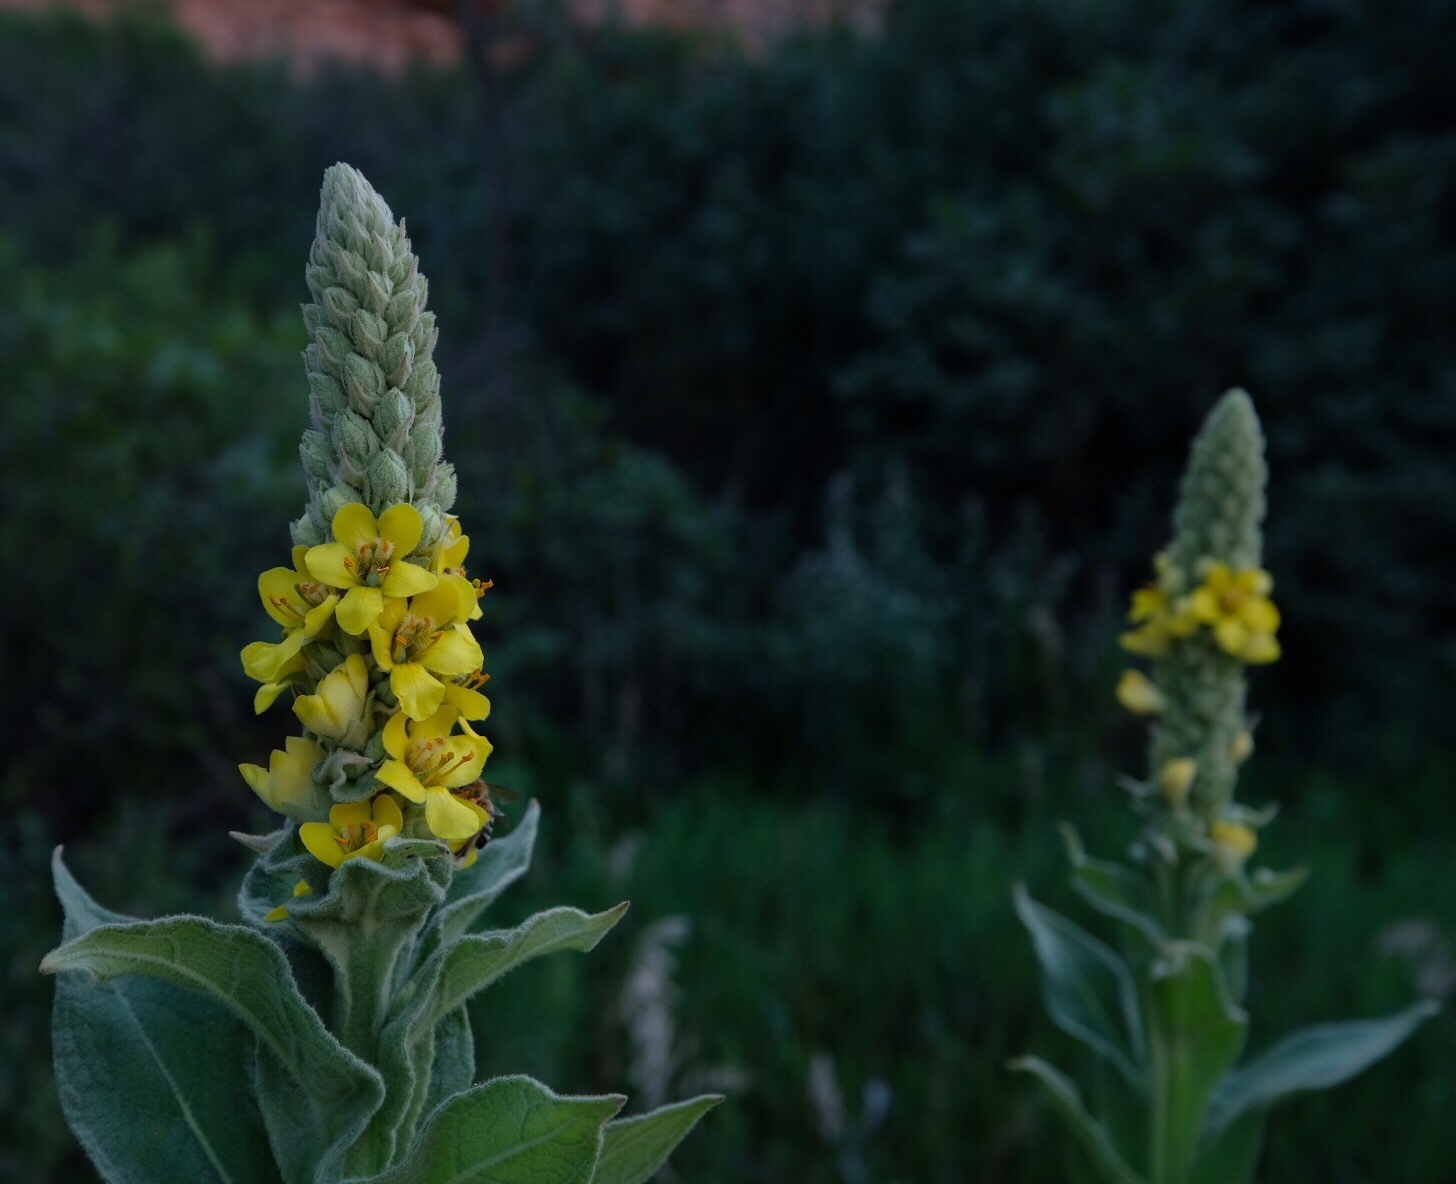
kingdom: Plantae
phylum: Tracheophyta
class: Magnoliopsida
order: Lamiales
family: Scrophulariaceae
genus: Verbascum
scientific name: Verbascum thapsus
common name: Common mullein
